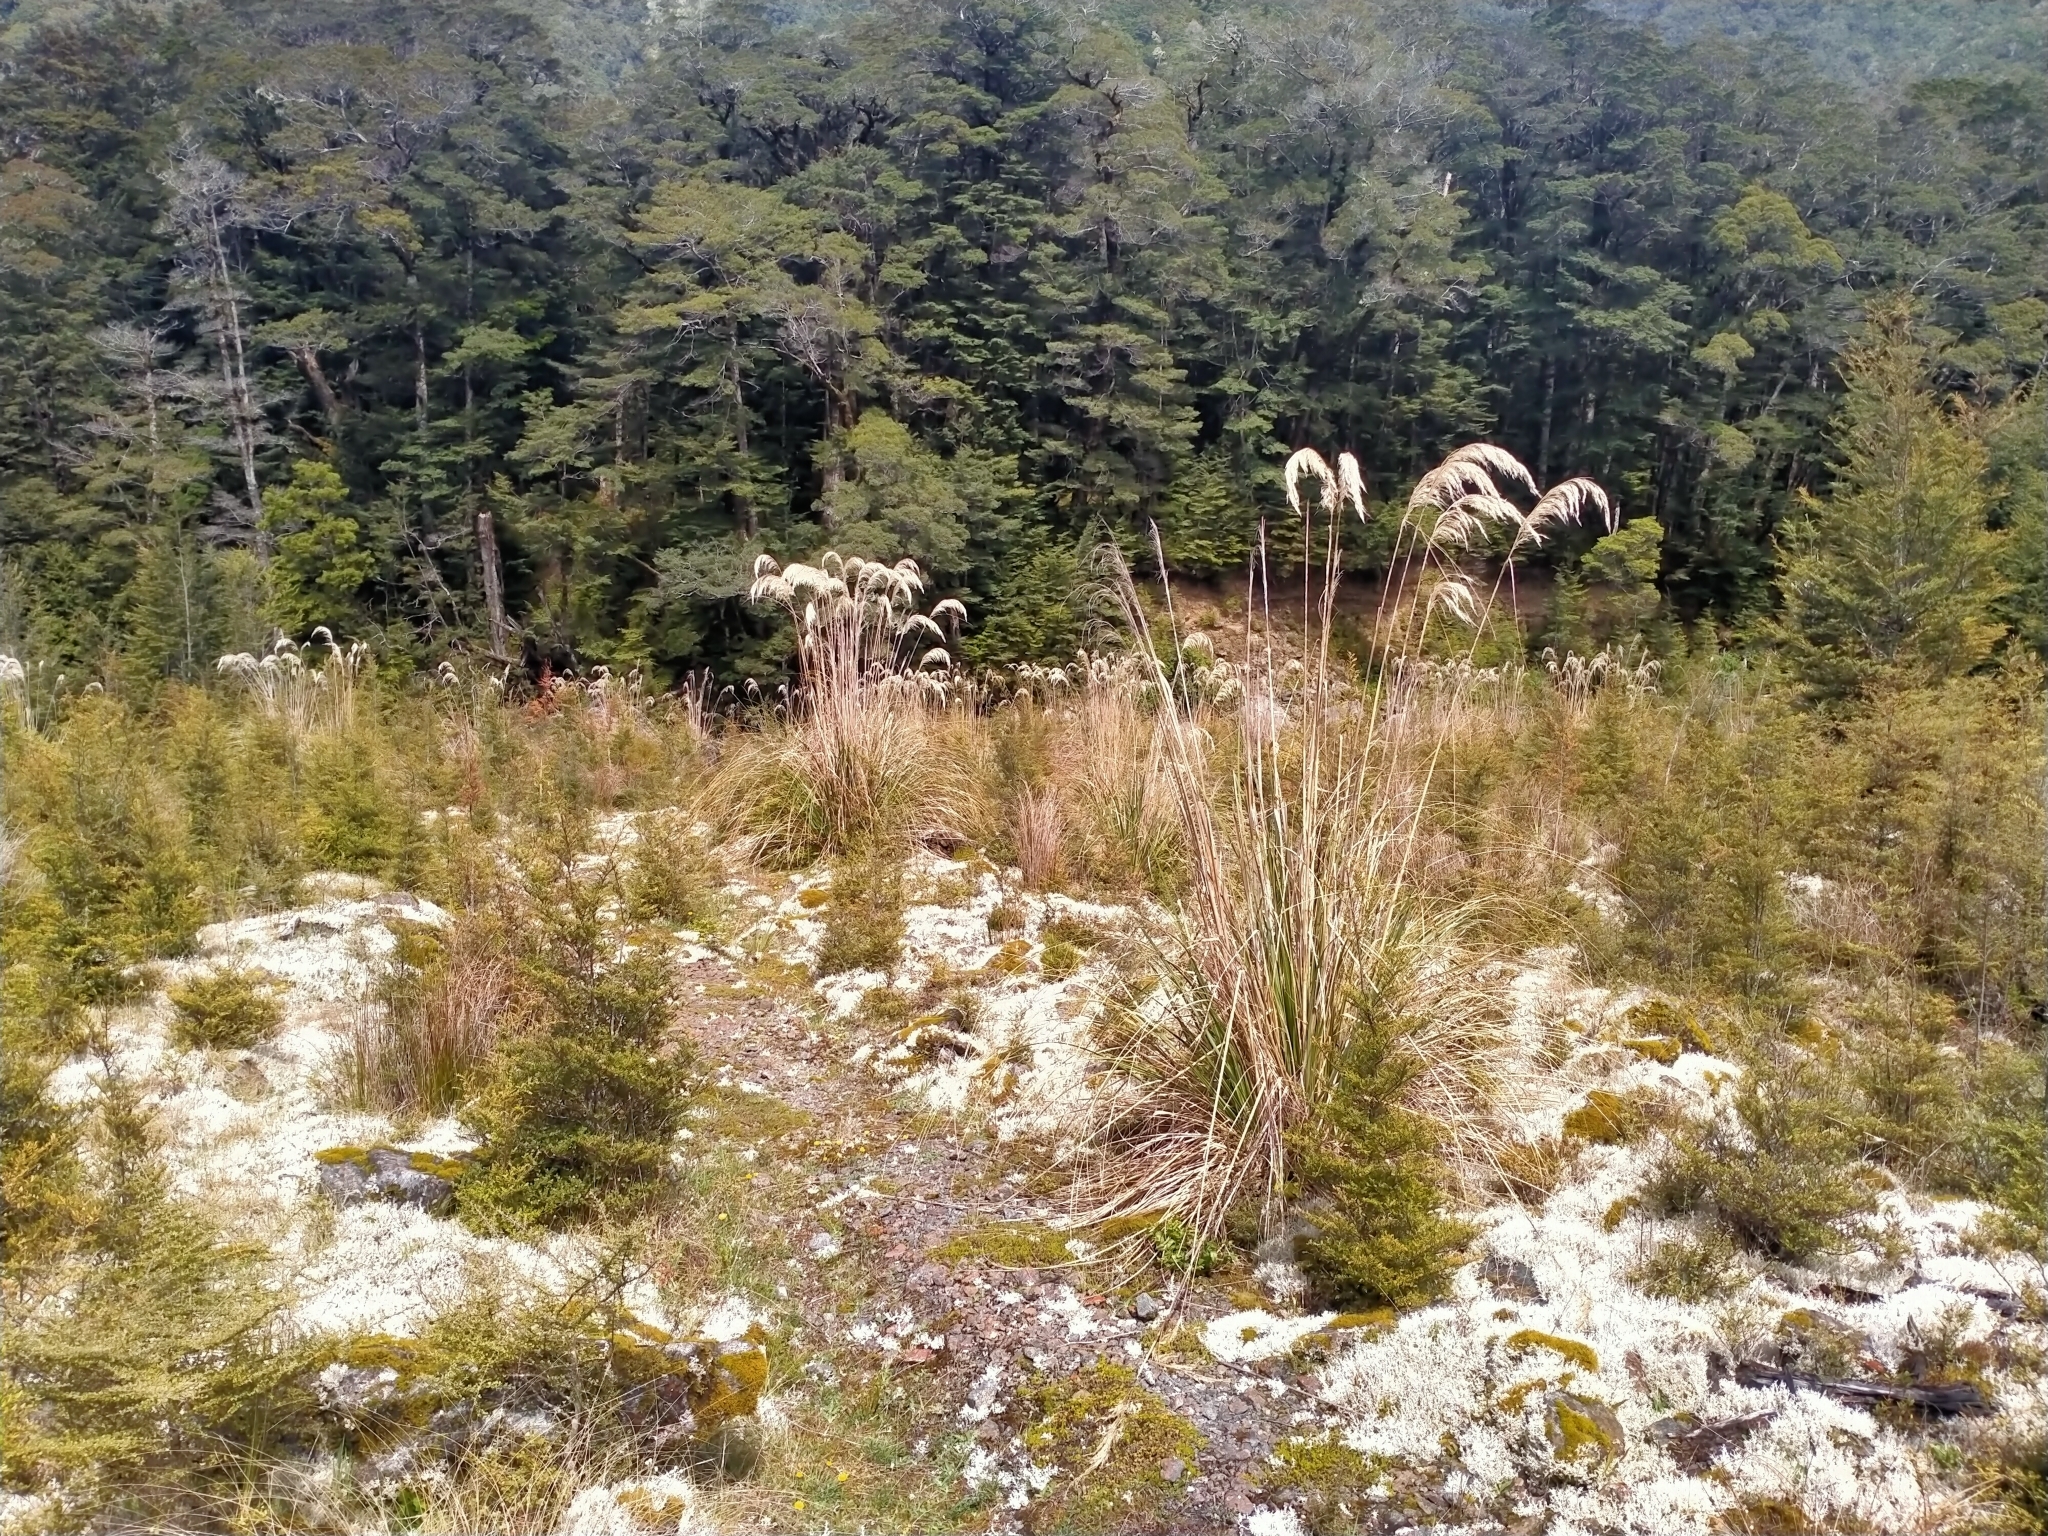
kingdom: Plantae
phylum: Tracheophyta
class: Liliopsida
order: Poales
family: Poaceae
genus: Austroderia
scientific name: Austroderia richardii
